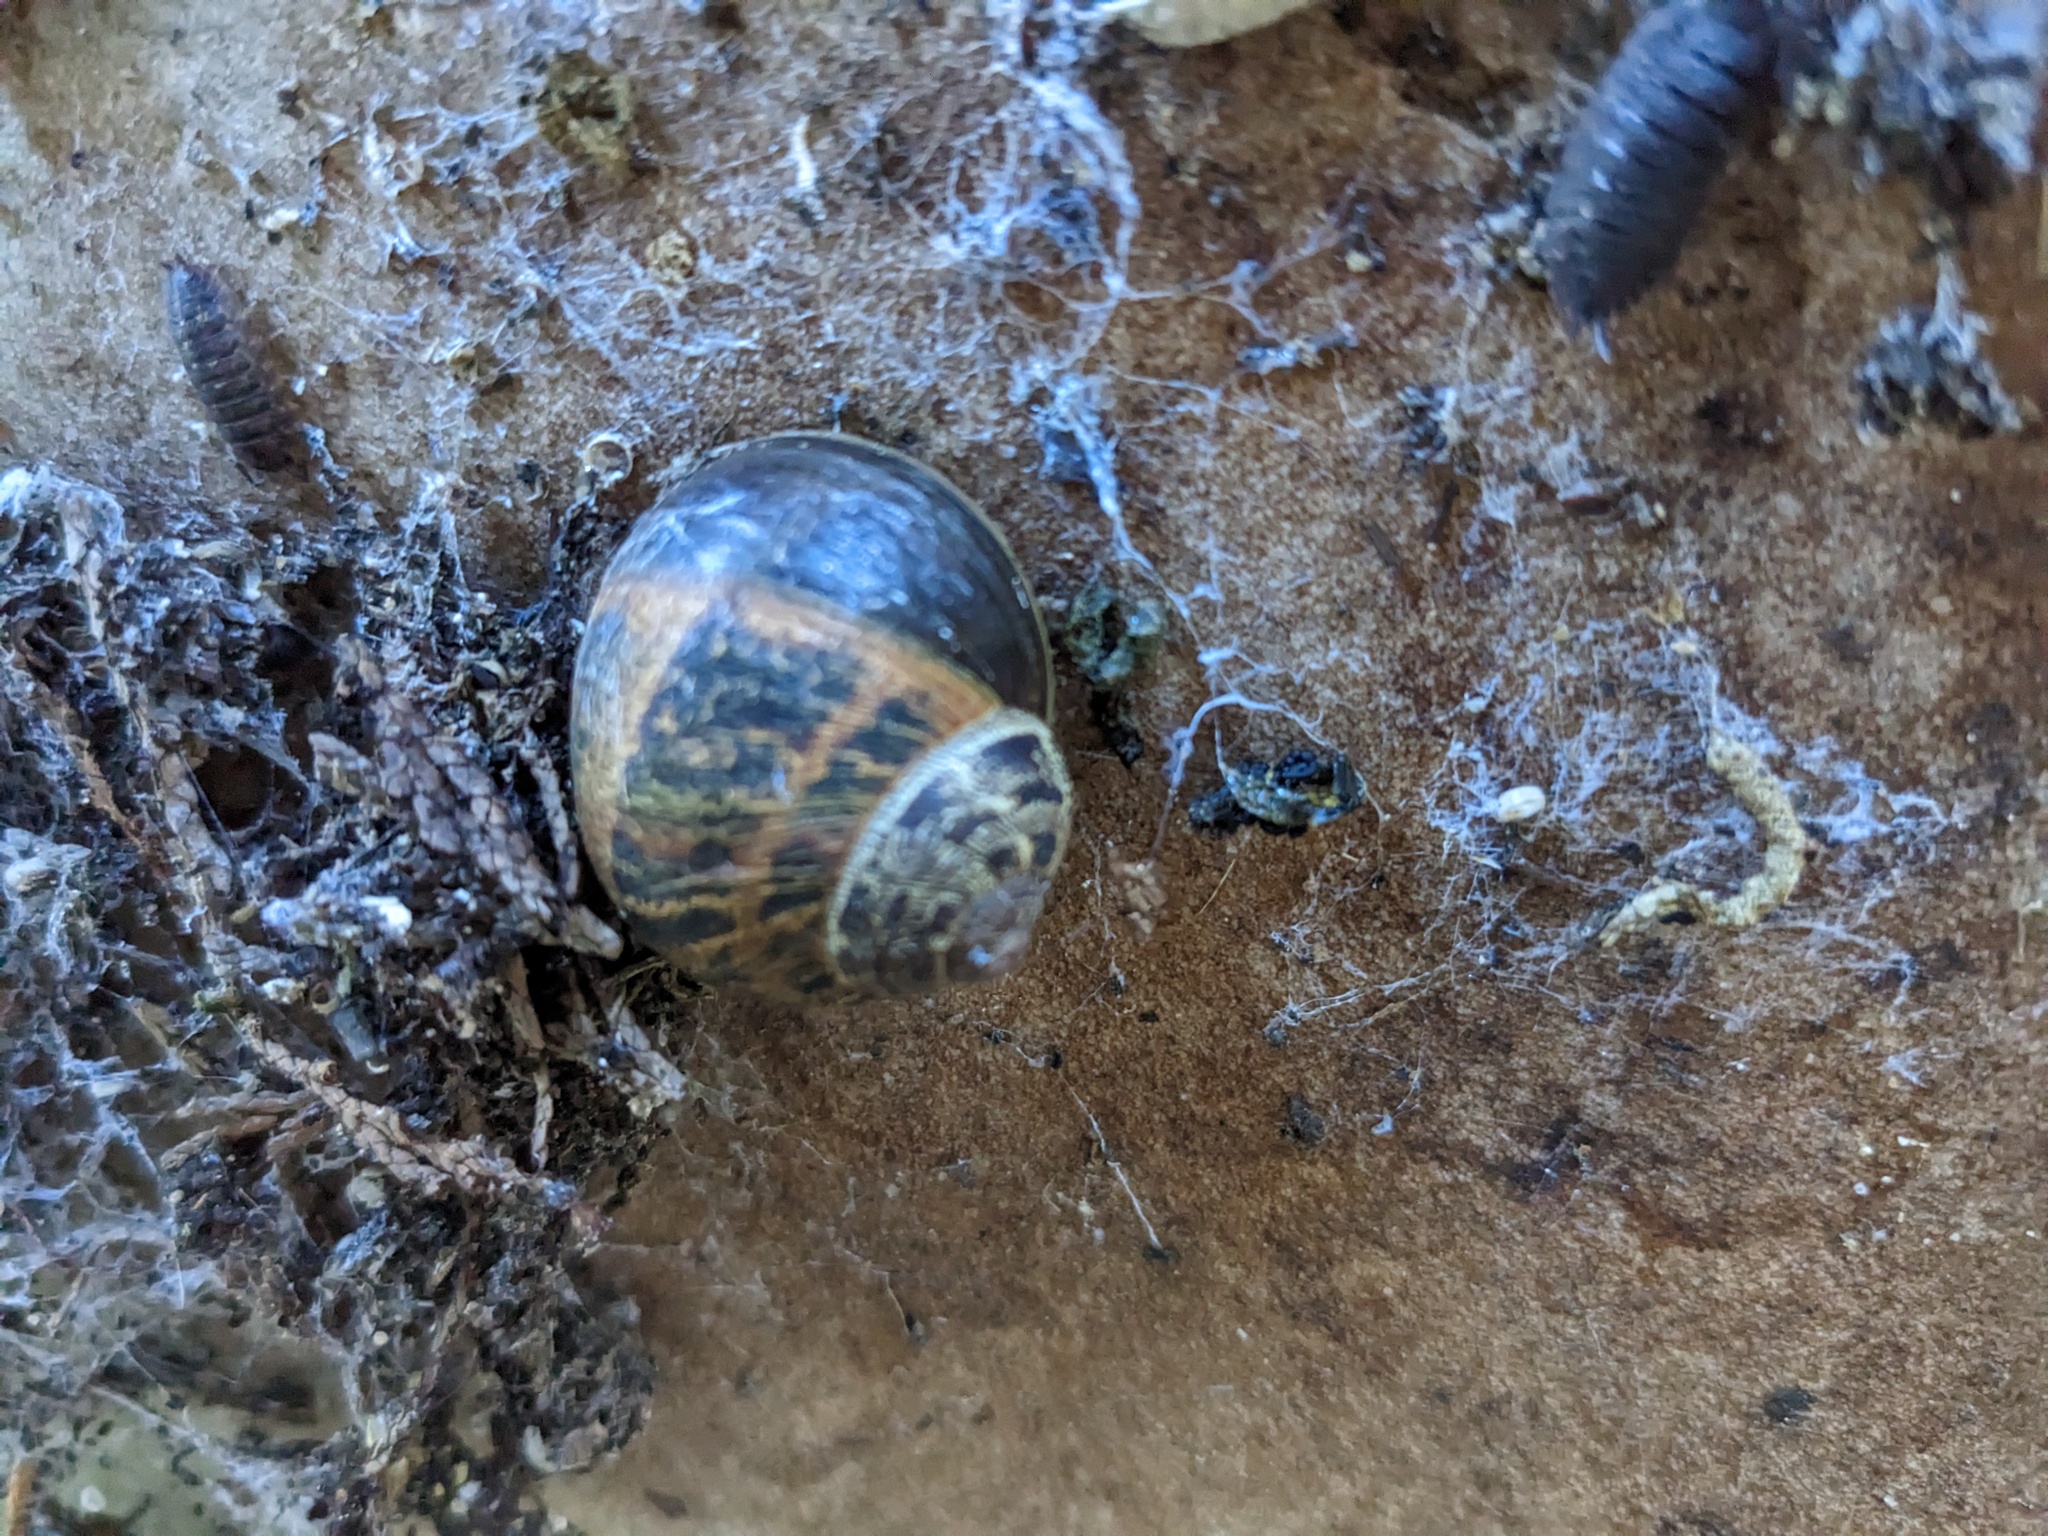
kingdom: Animalia
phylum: Mollusca
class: Gastropoda
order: Stylommatophora
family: Helicidae
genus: Cornu
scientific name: Cornu aspersum
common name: Brown garden snail
